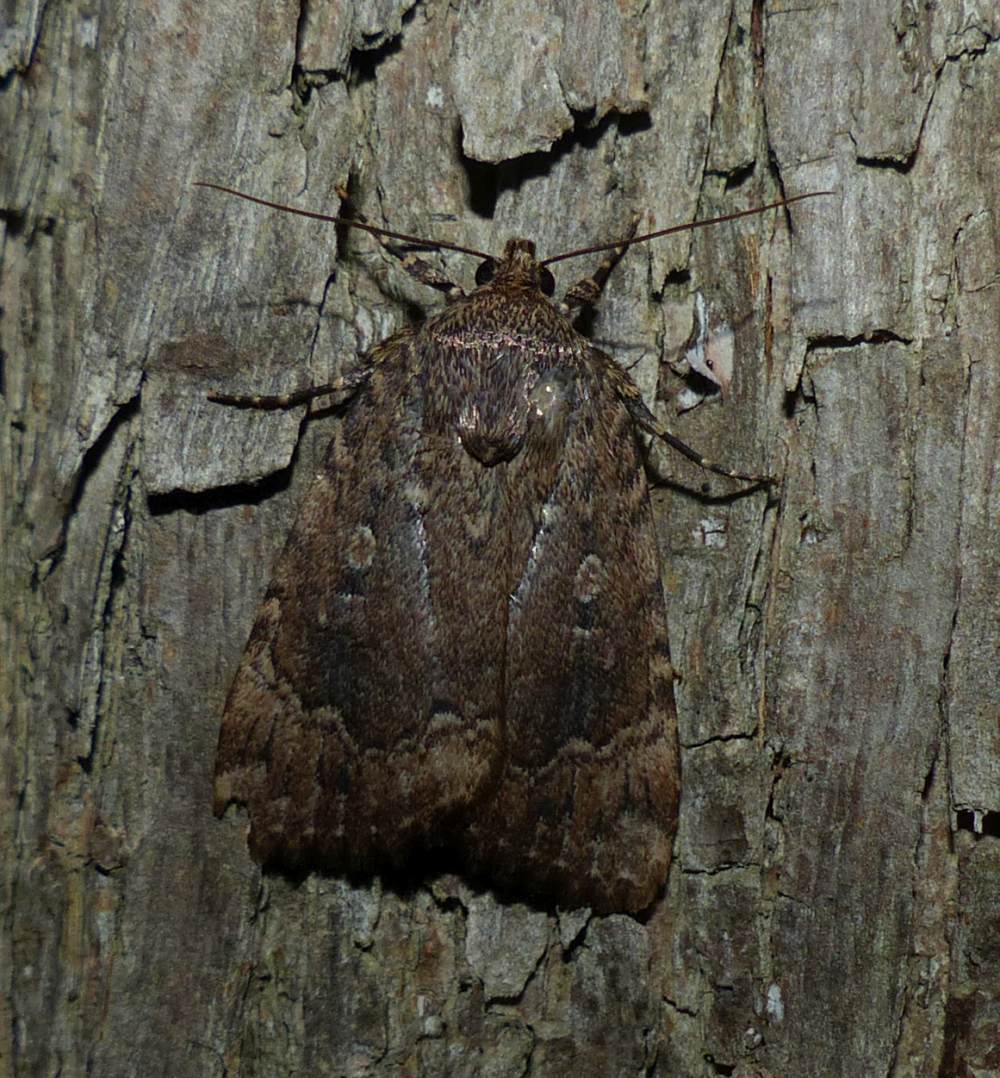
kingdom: Animalia
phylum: Arthropoda
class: Insecta
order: Lepidoptera
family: Noctuidae
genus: Amphipyra
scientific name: Amphipyra pyramidoides
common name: American copper underwing
